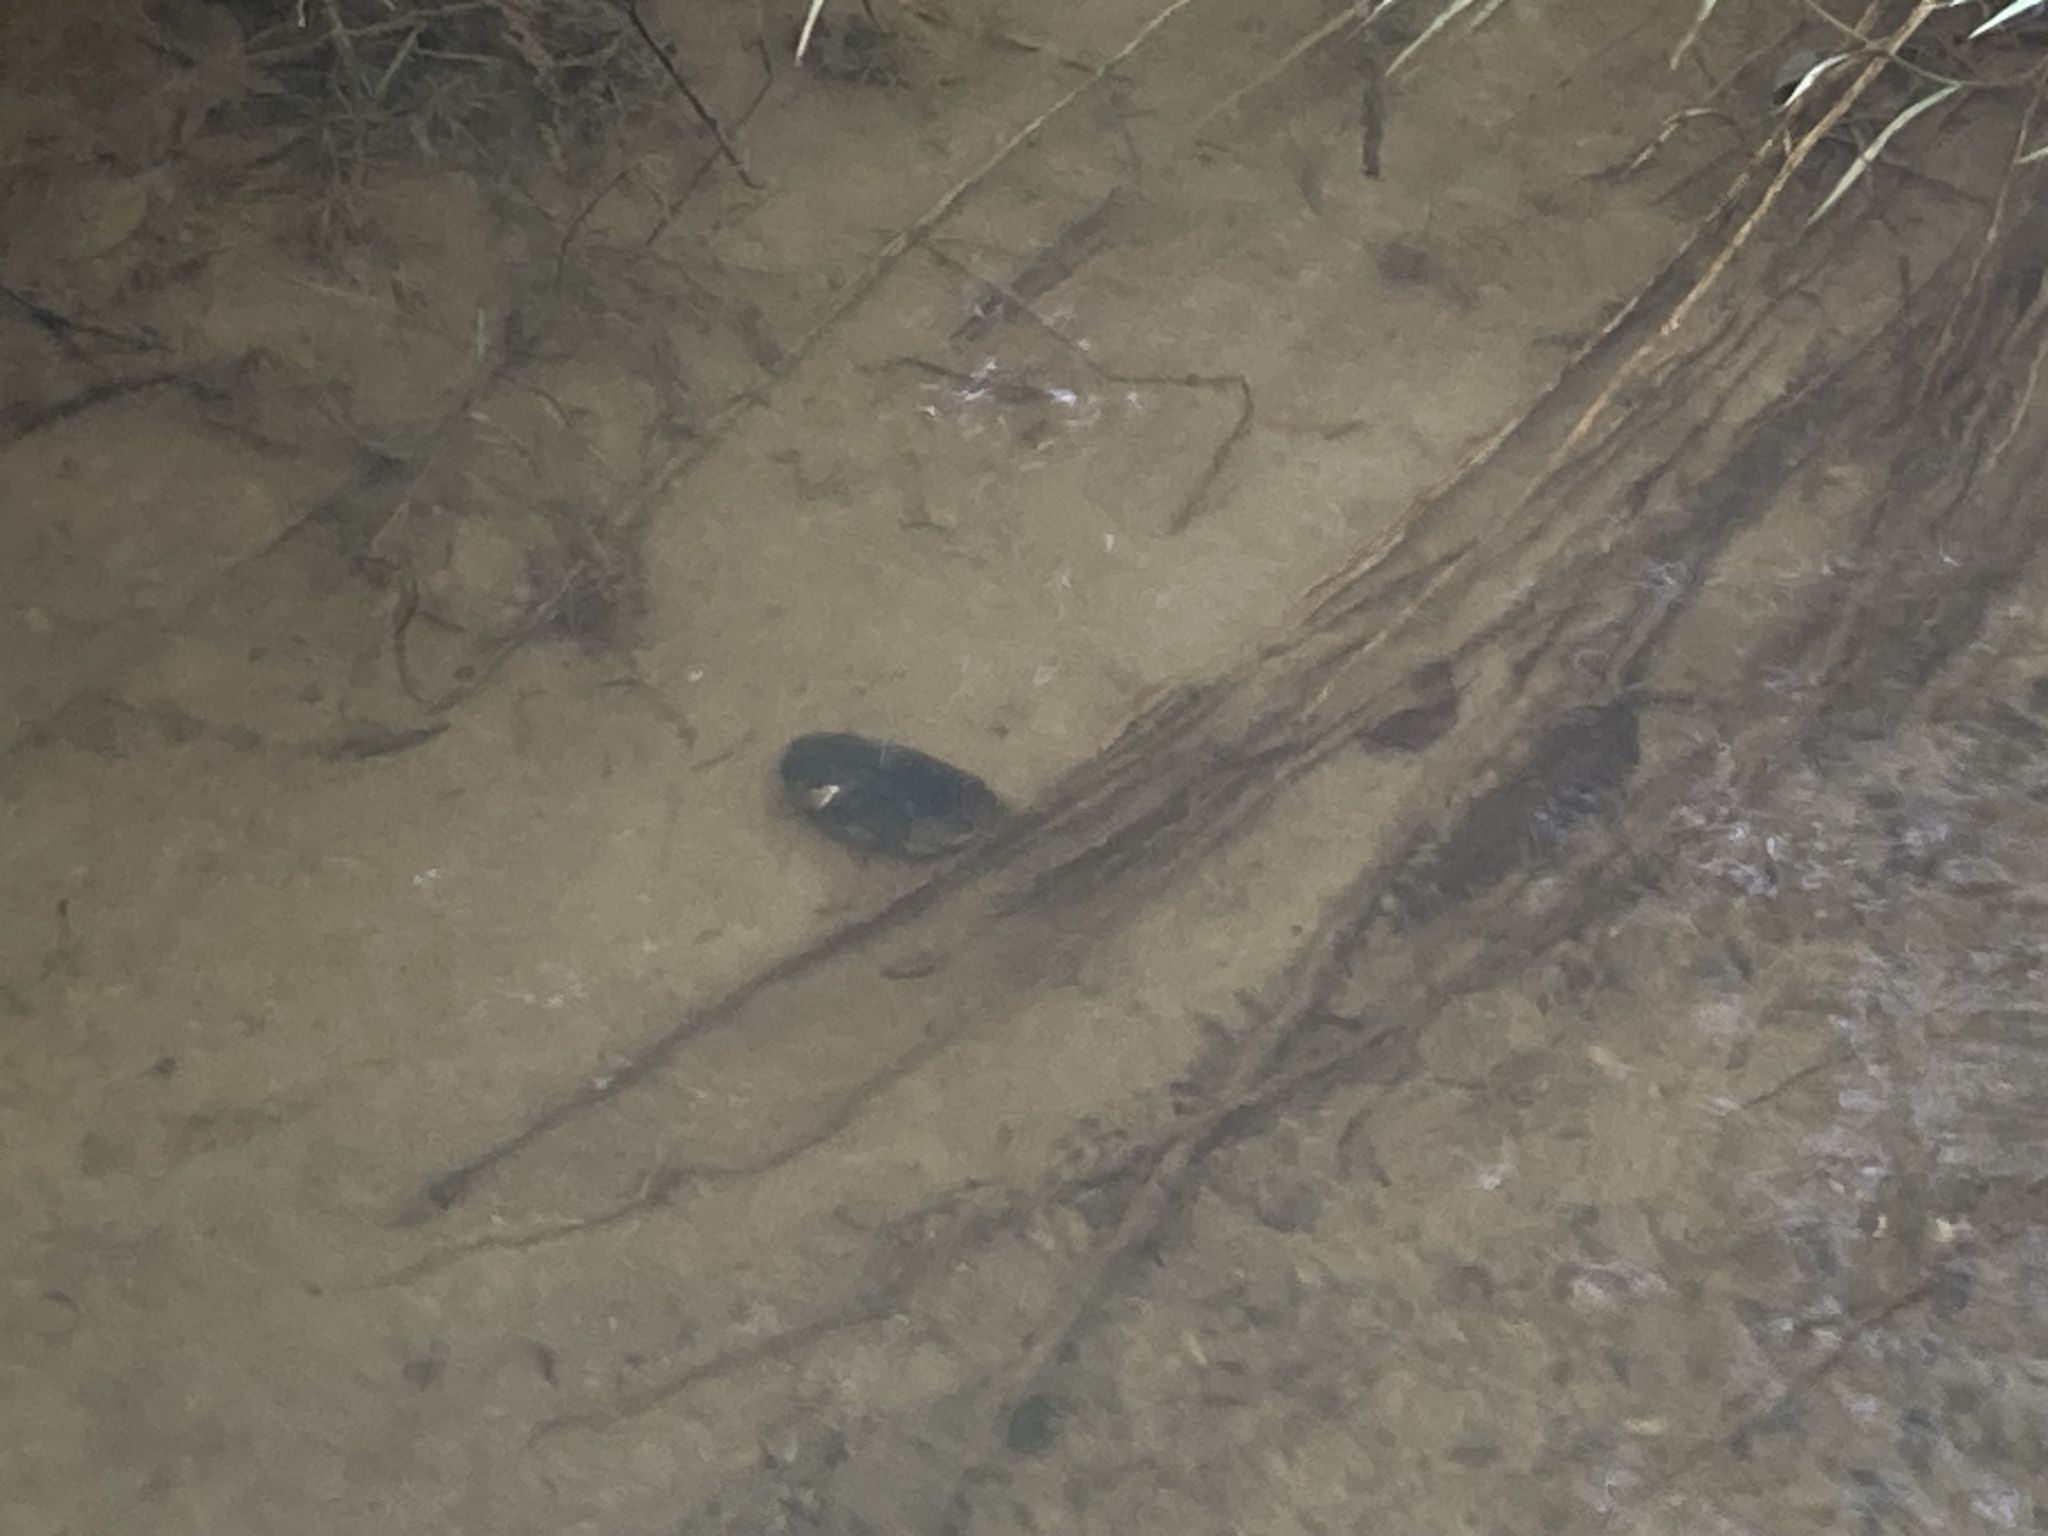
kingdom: Animalia
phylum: Mollusca
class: Bivalvia
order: Unionida
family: Hyriidae
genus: Echyridella
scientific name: Echyridella menziesii
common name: New zealand freshwater mussel
